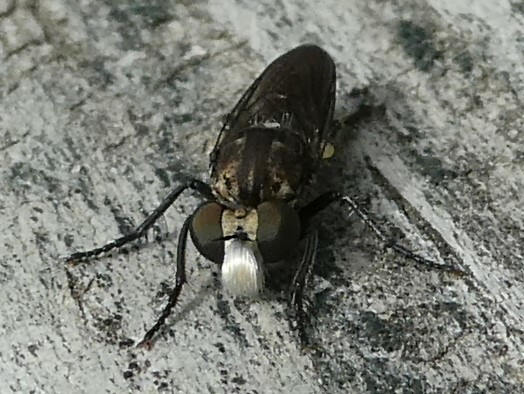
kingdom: Animalia
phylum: Arthropoda
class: Insecta
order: Diptera
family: Asilidae
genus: Cyrtopogon
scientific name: Cyrtopogon lutatius
